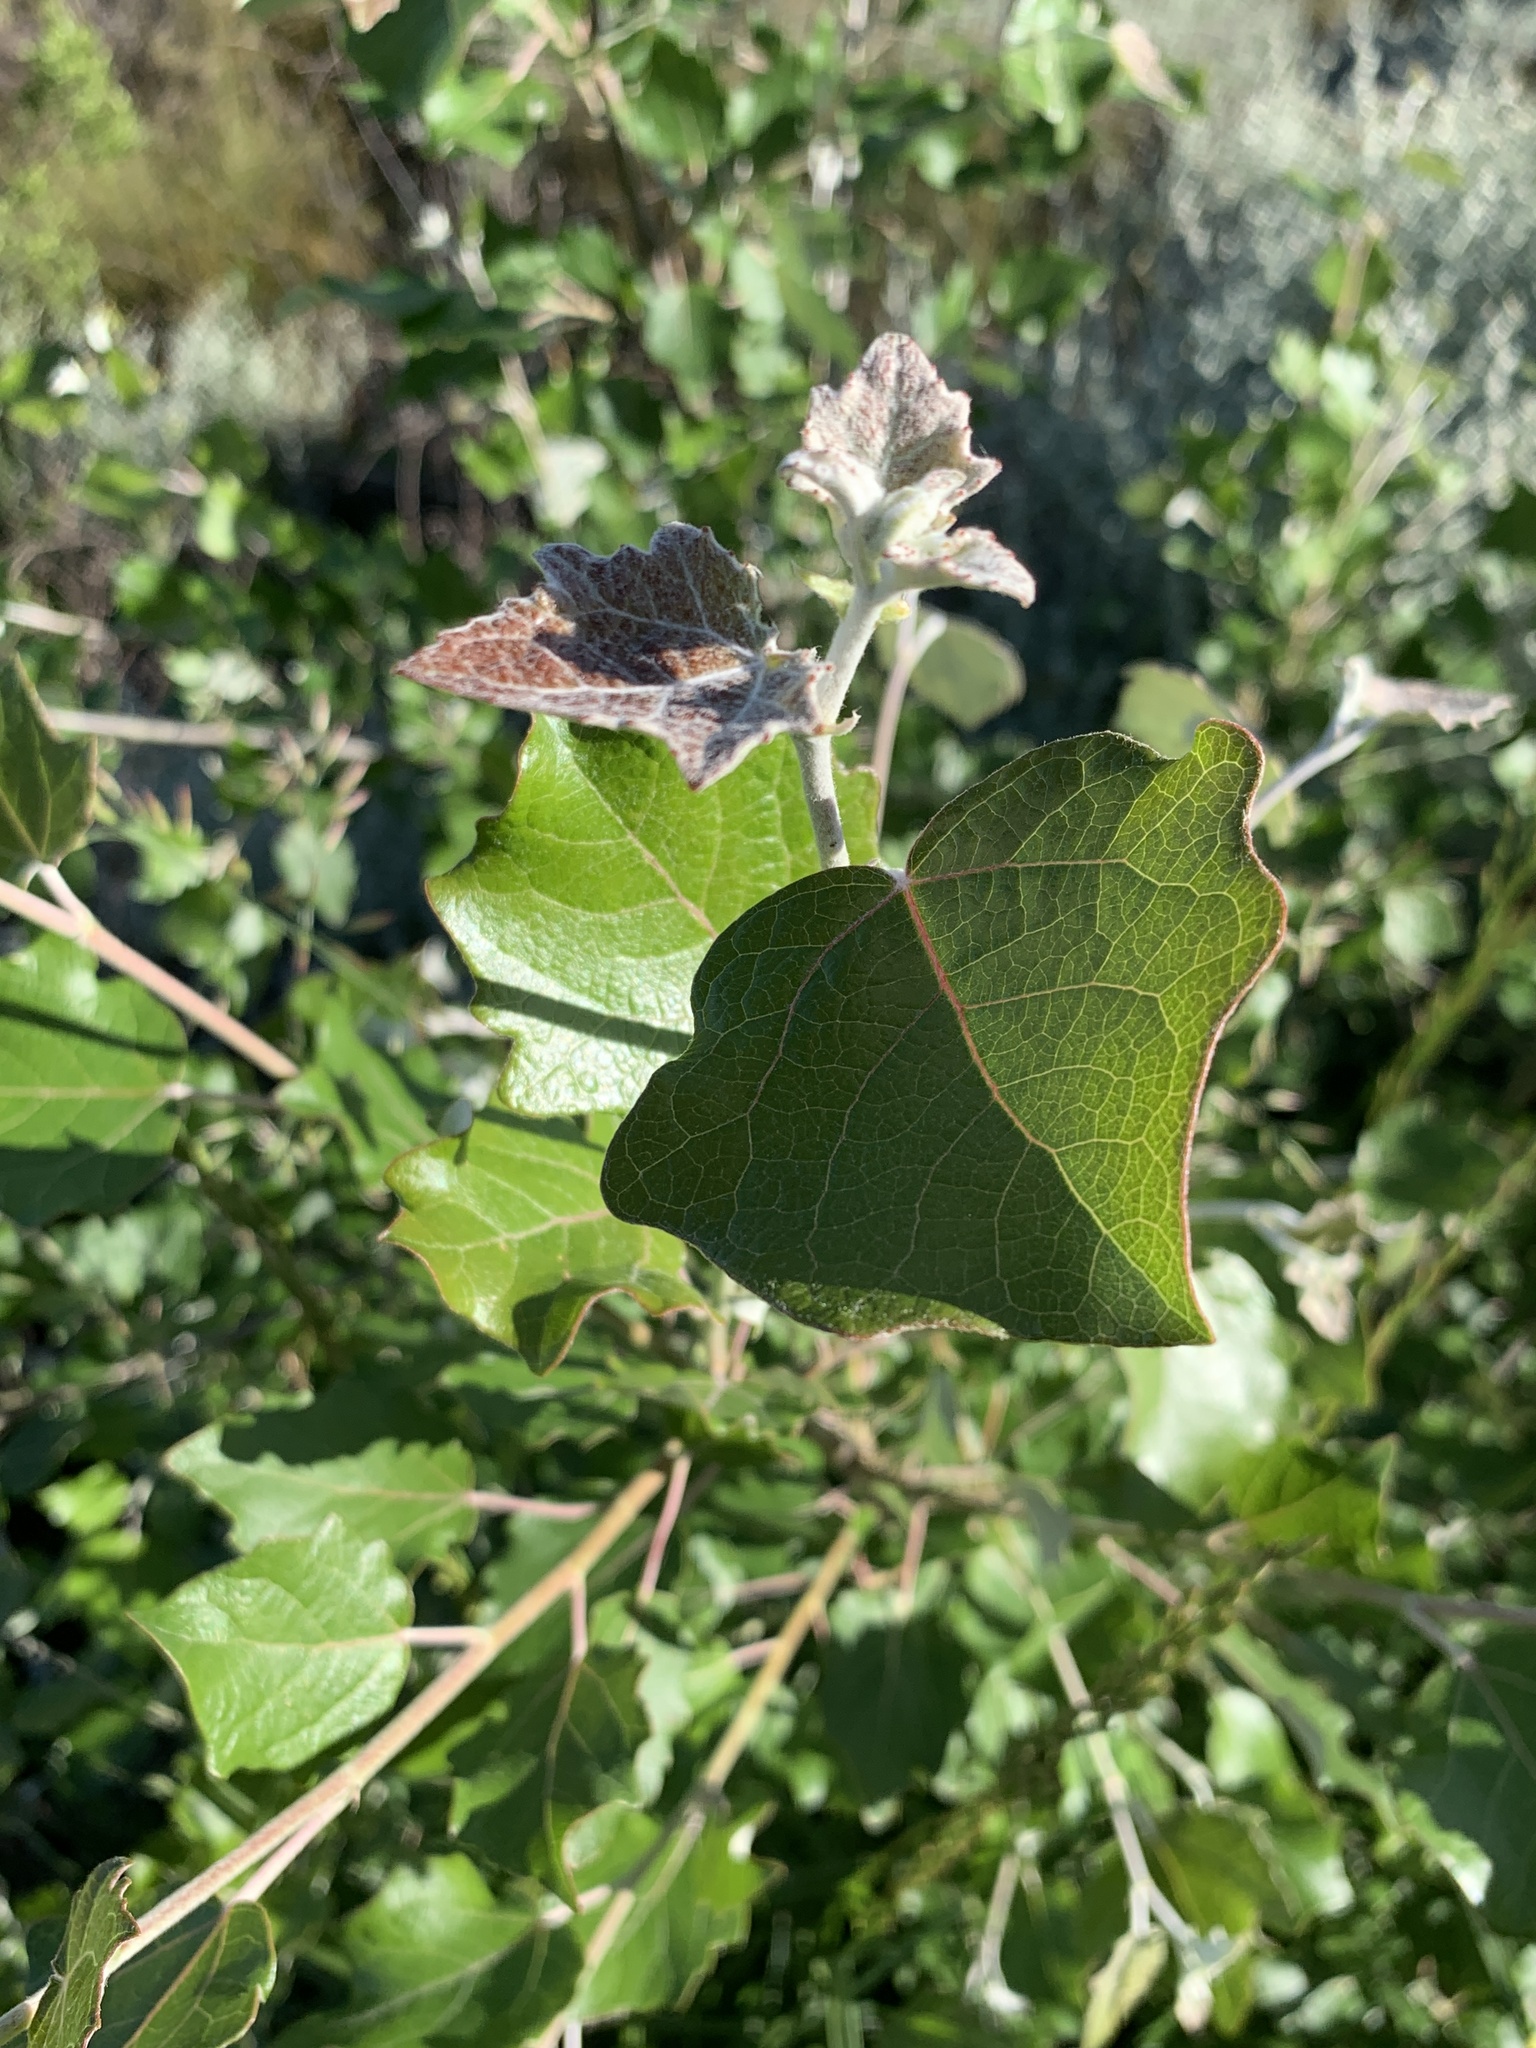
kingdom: Plantae
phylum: Tracheophyta
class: Magnoliopsida
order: Malpighiales
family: Salicaceae
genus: Populus
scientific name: Populus canescens
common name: Gray poplar
